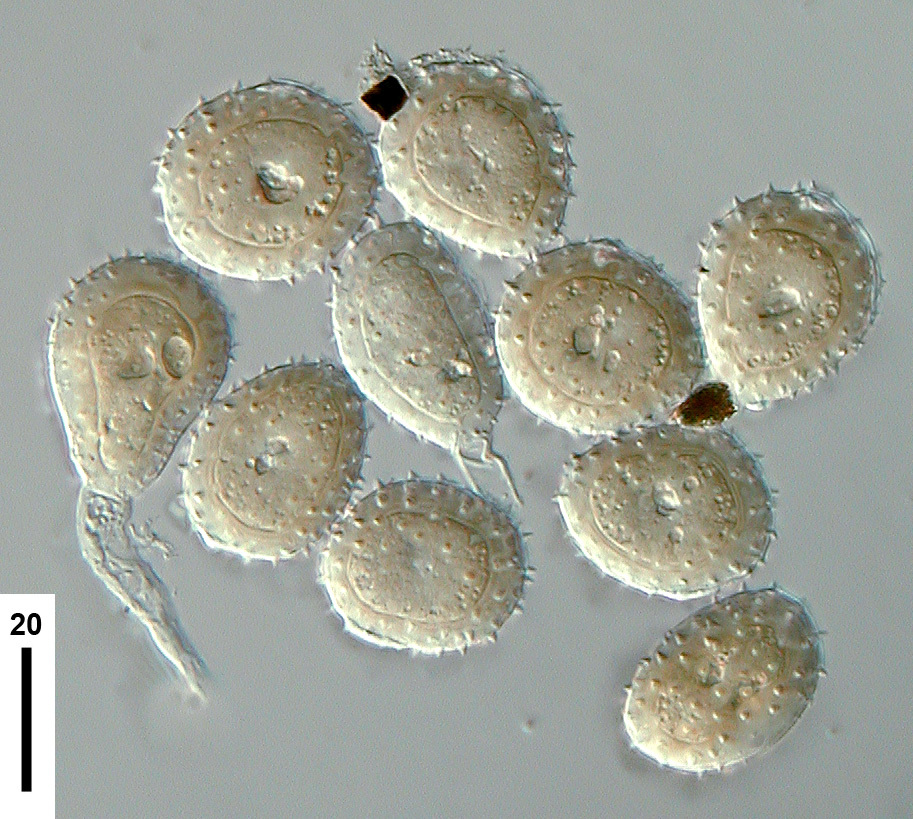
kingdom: Fungi
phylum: Basidiomycota
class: Pucciniomycetes
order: Pucciniales
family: Pucciniaceae
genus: Puccinia
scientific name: Puccinia tararua
